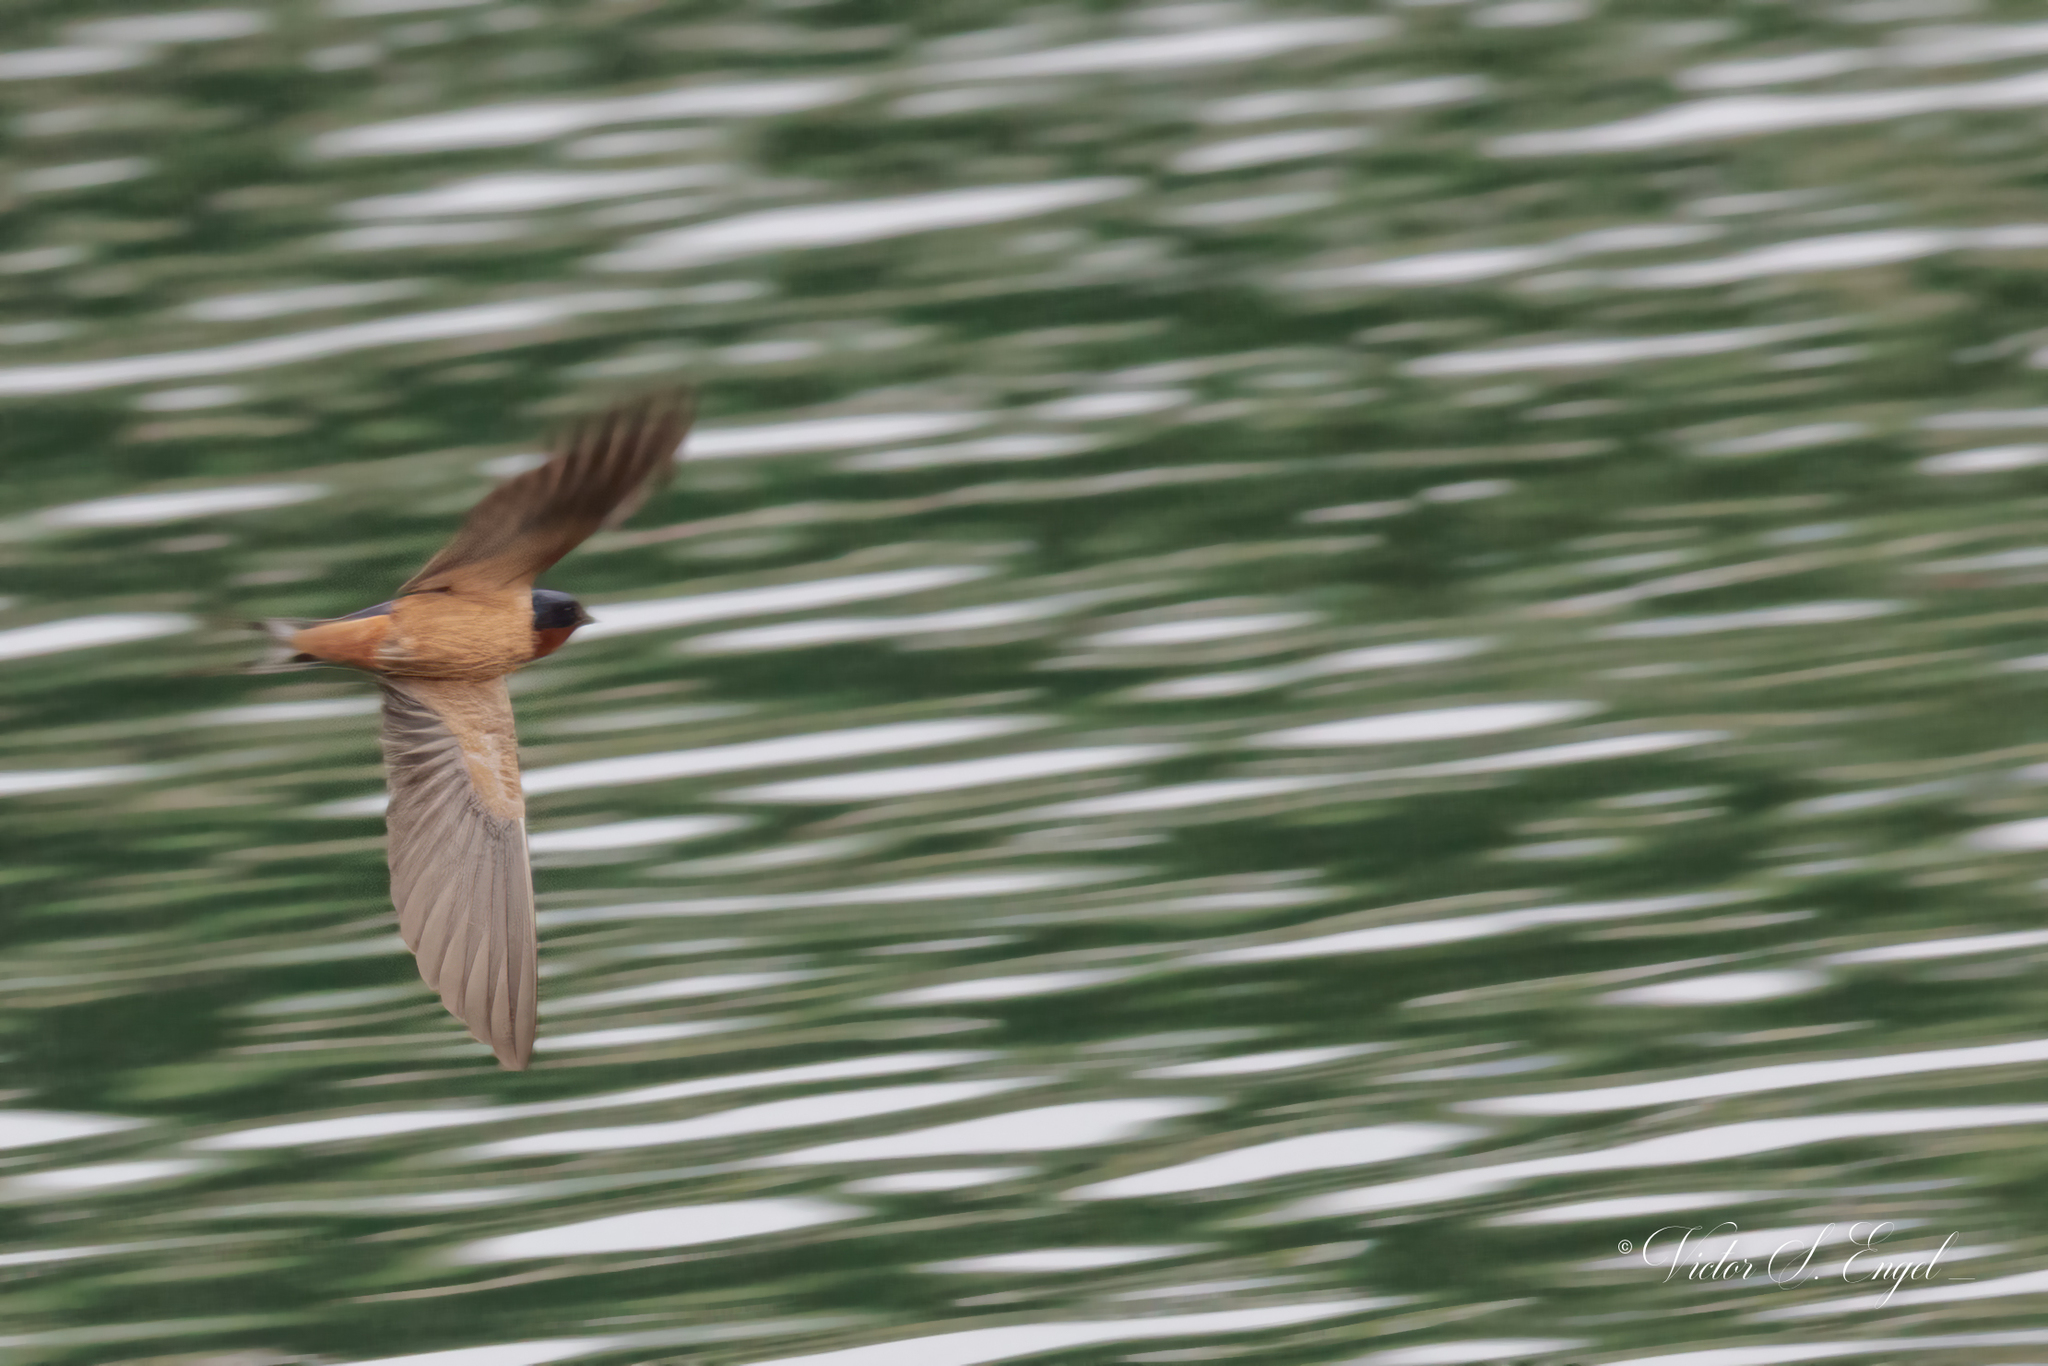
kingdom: Animalia
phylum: Chordata
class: Aves
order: Passeriformes
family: Hirundinidae
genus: Hirundo
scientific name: Hirundo rustica
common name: Barn swallow
